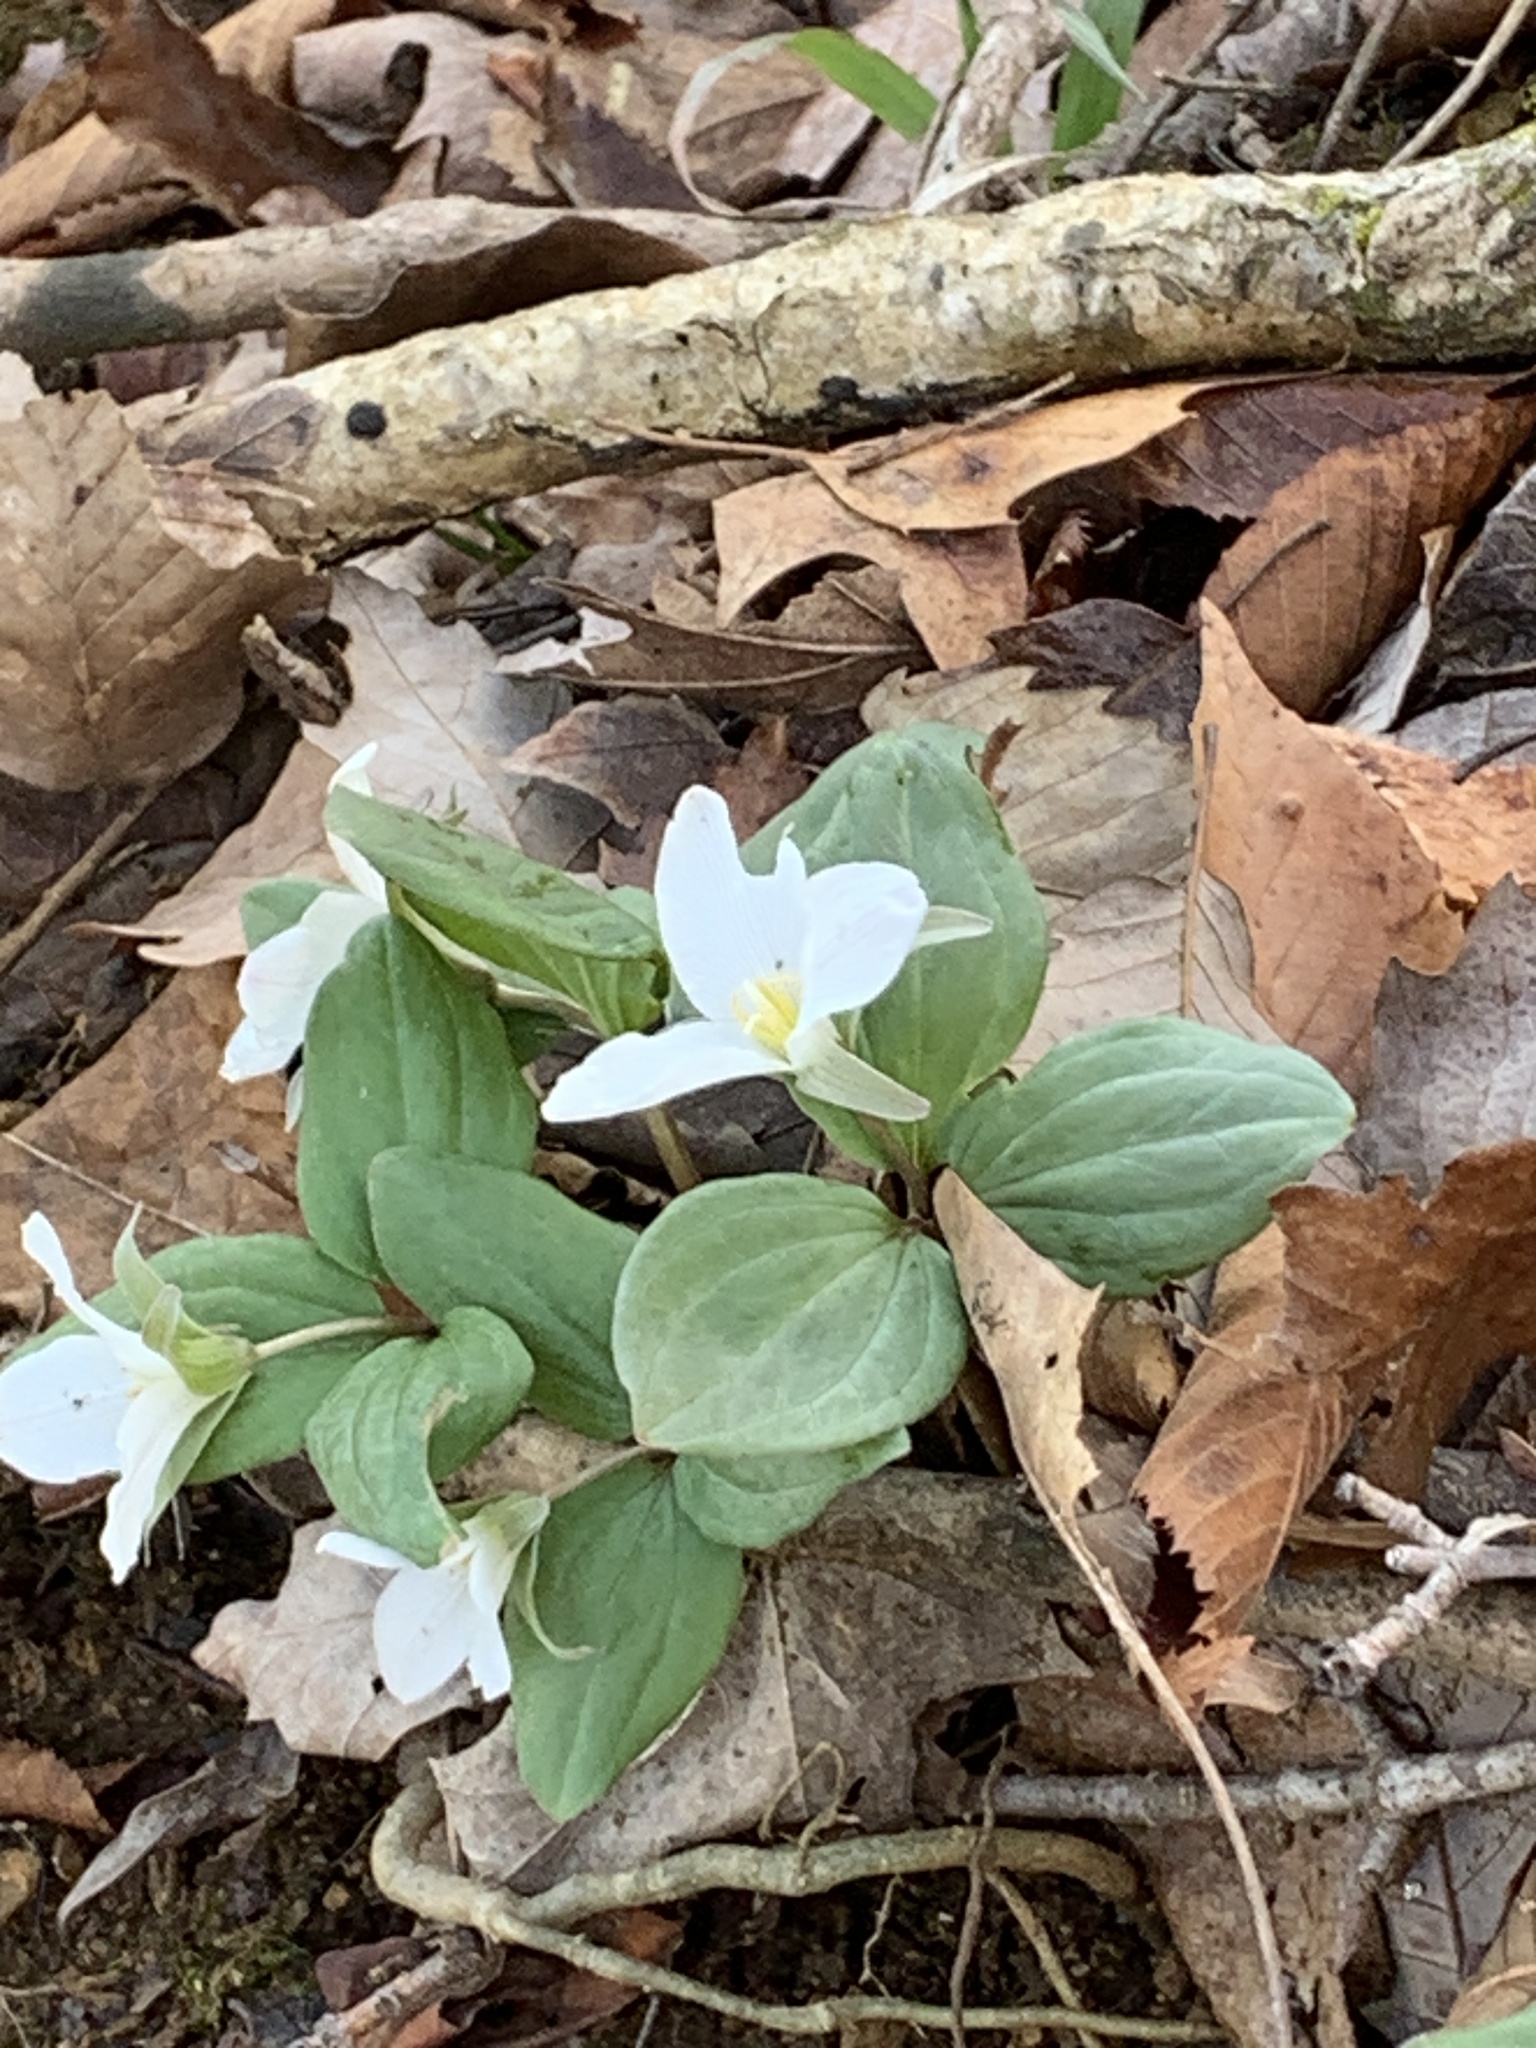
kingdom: Plantae
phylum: Tracheophyta
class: Liliopsida
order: Liliales
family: Melanthiaceae
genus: Trillium
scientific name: Trillium nivale
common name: Dwarf white trillium
